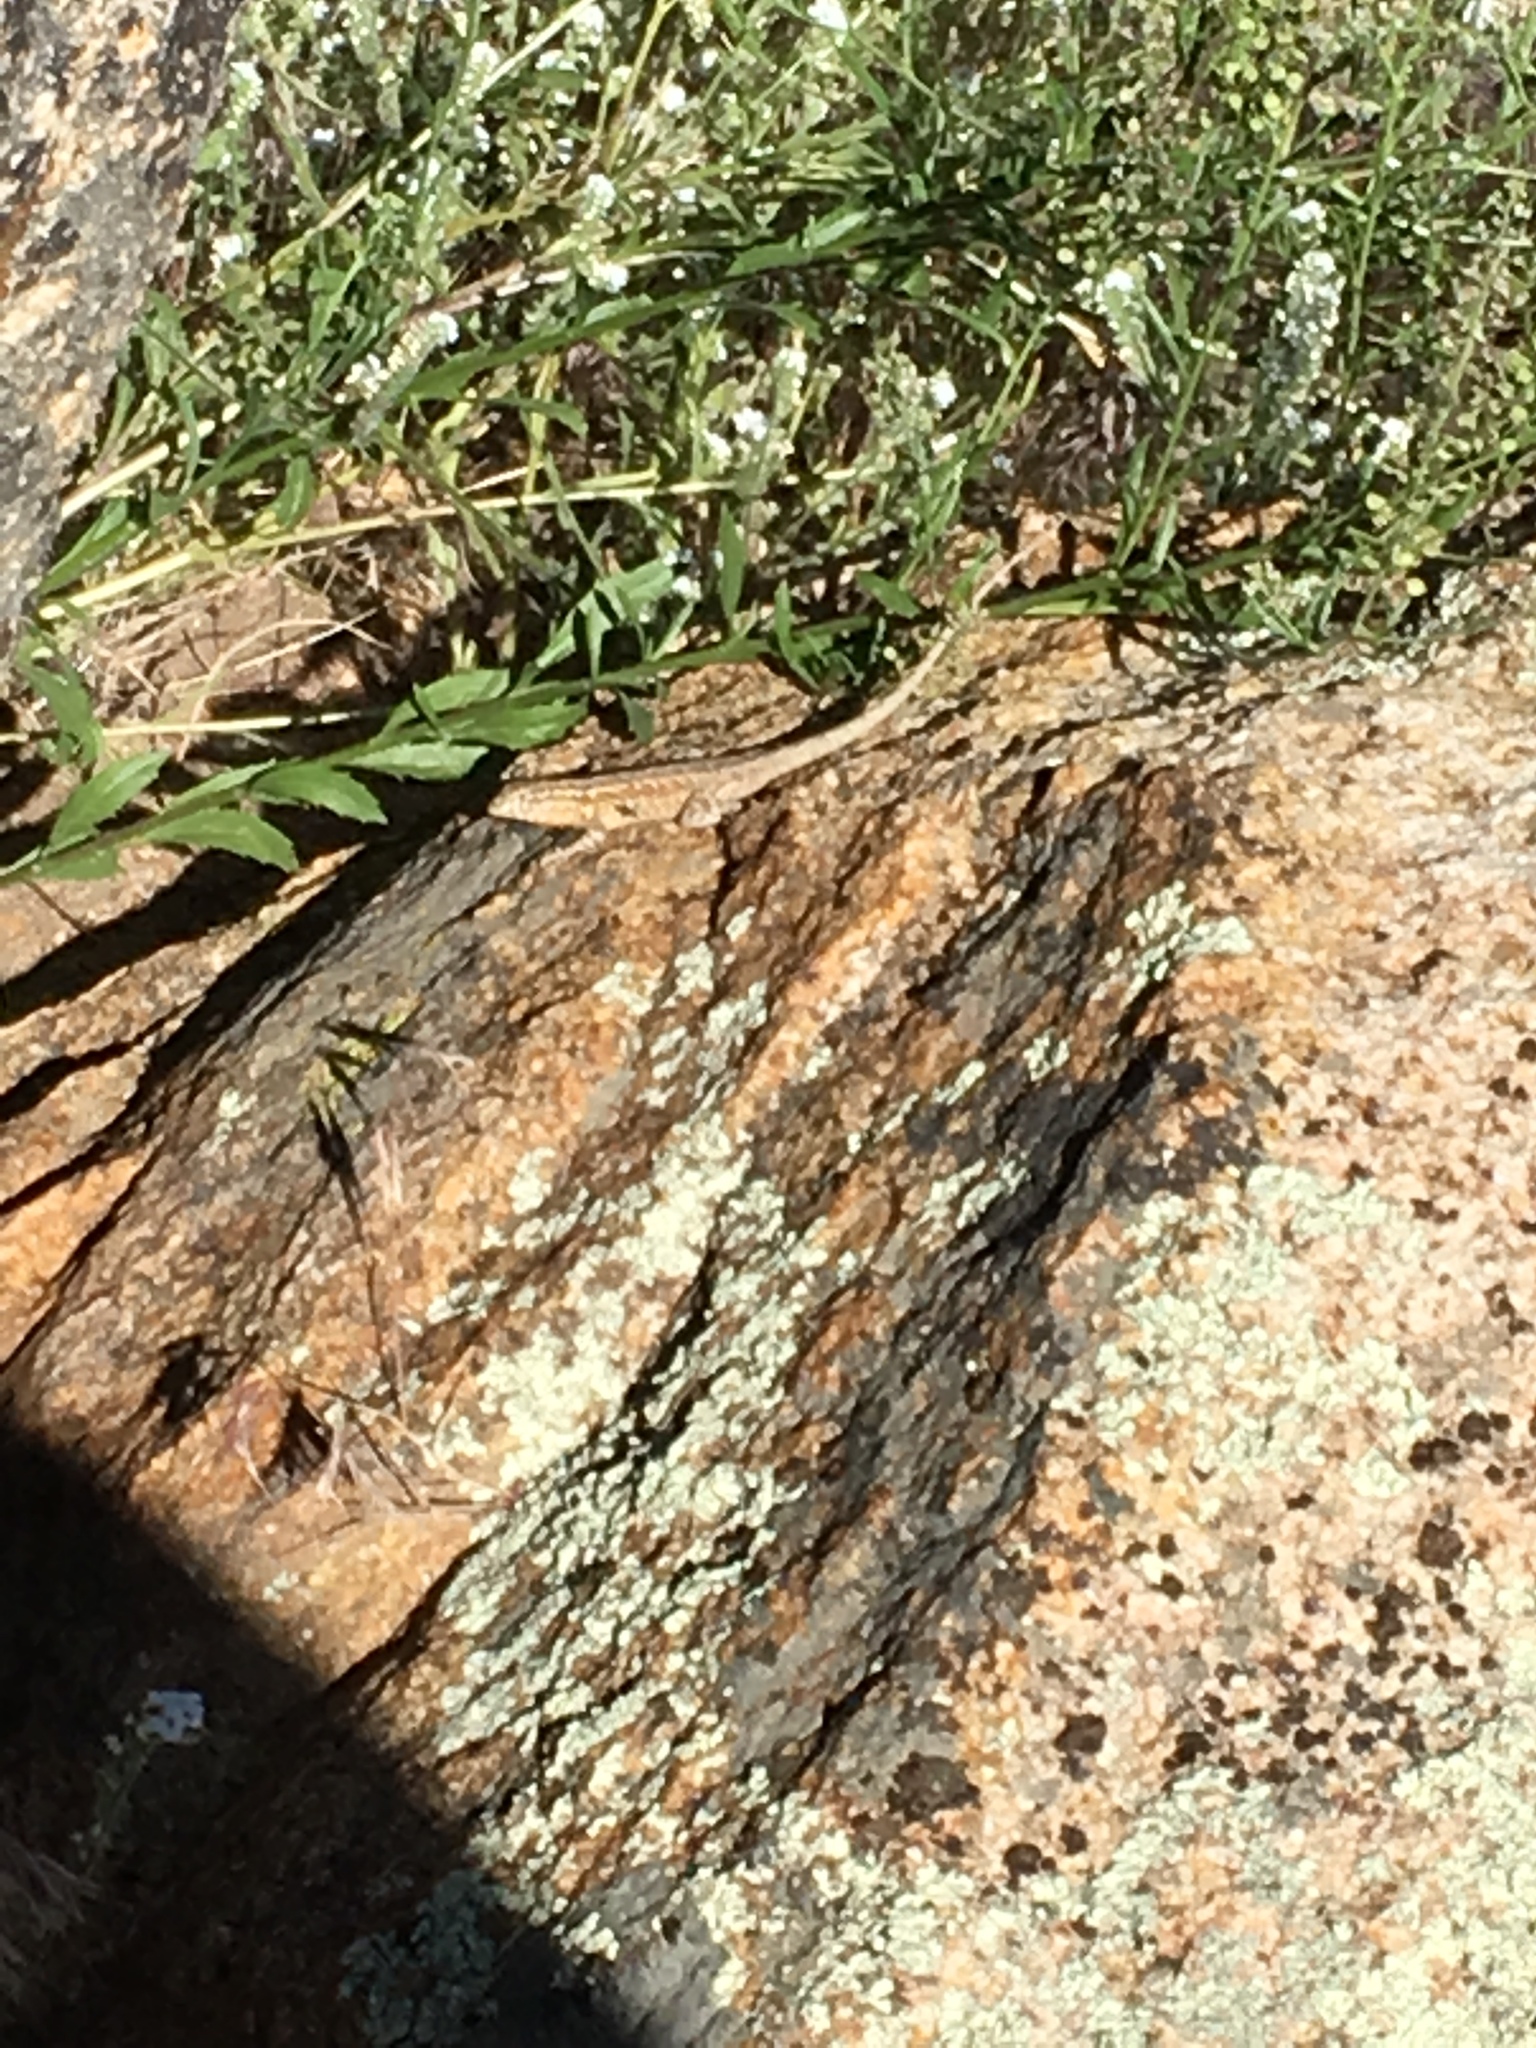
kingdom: Animalia
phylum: Chordata
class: Squamata
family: Phrynosomatidae
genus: Uta
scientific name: Uta stansburiana
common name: Side-blotched lizard
